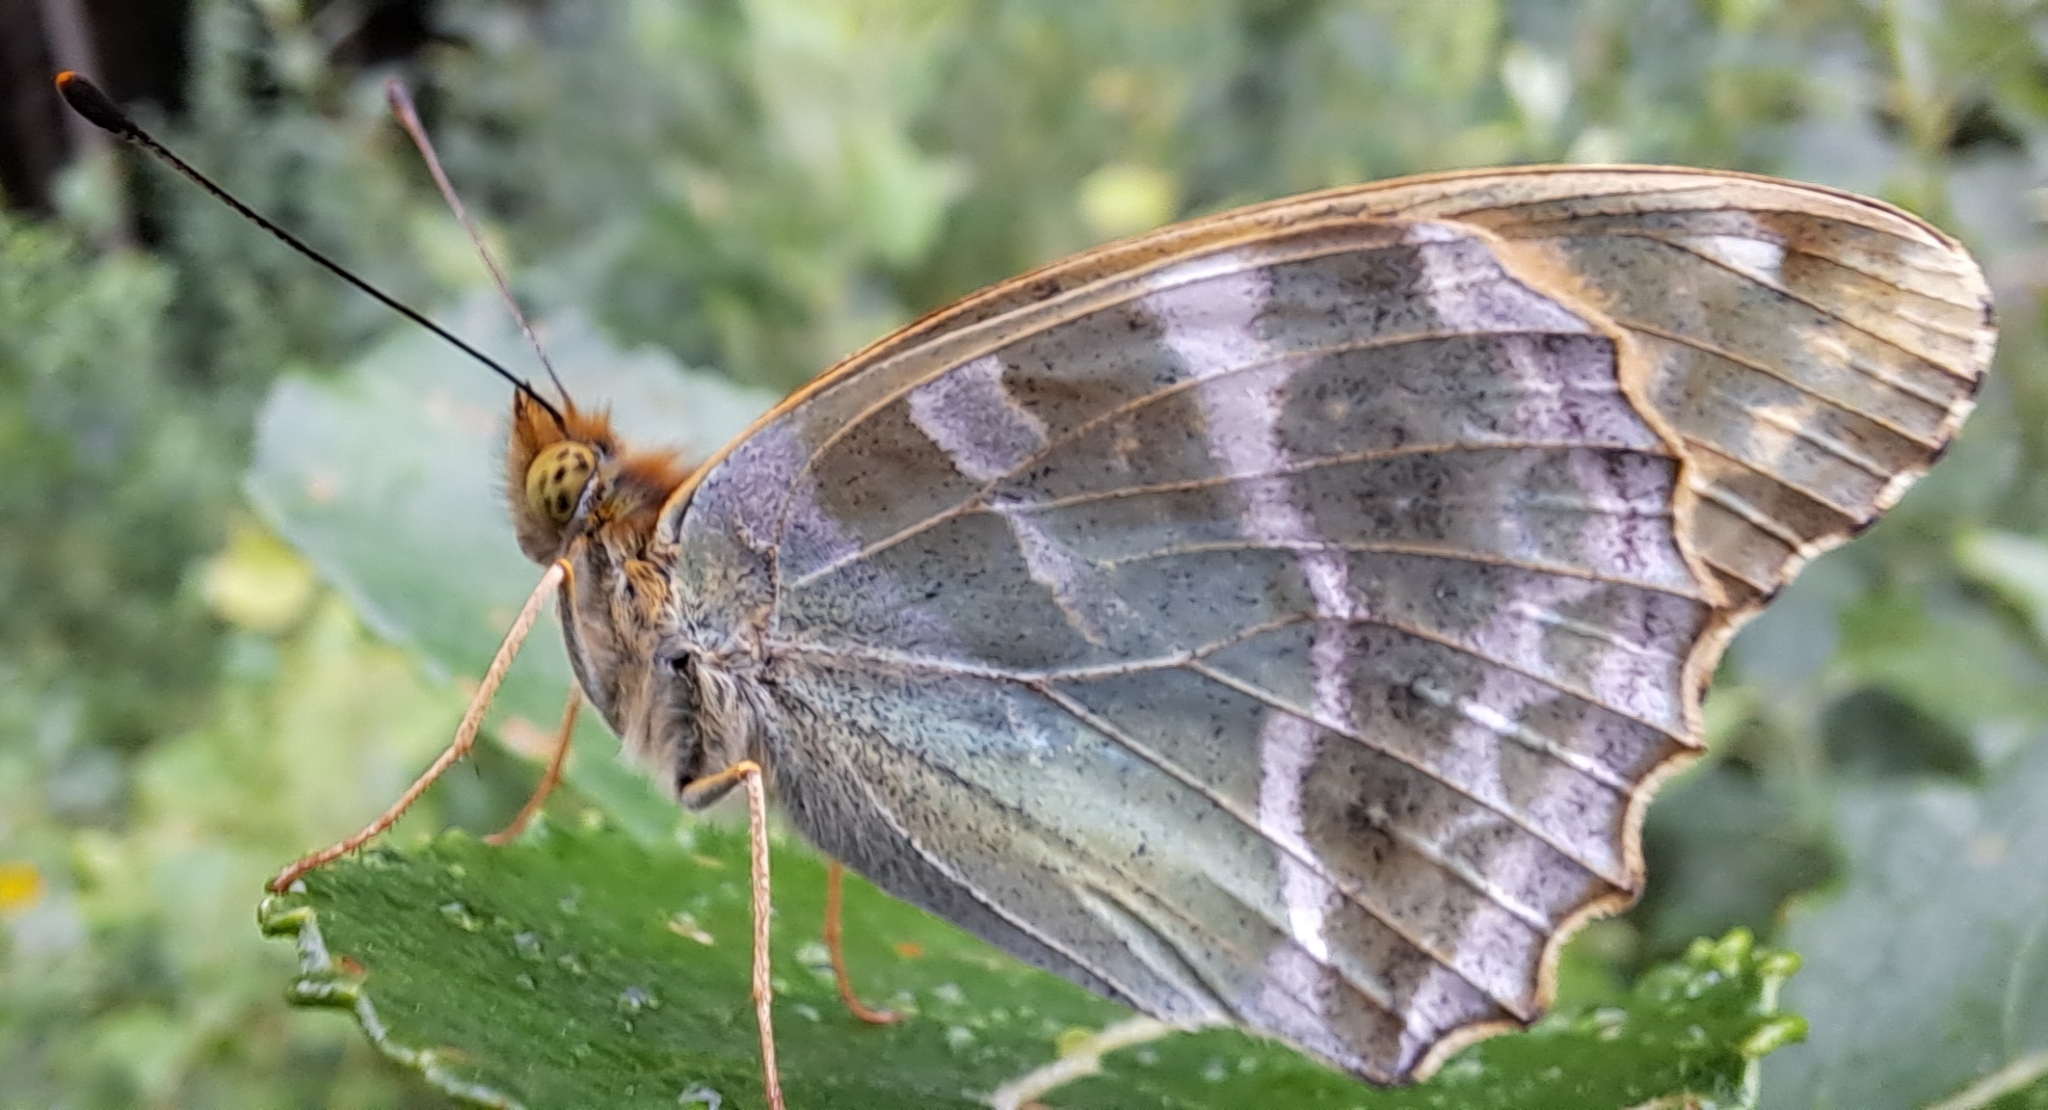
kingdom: Animalia
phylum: Arthropoda
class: Insecta
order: Lepidoptera
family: Nymphalidae
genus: Argynnis
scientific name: Argynnis paphia
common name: Silver-washed fritillary
